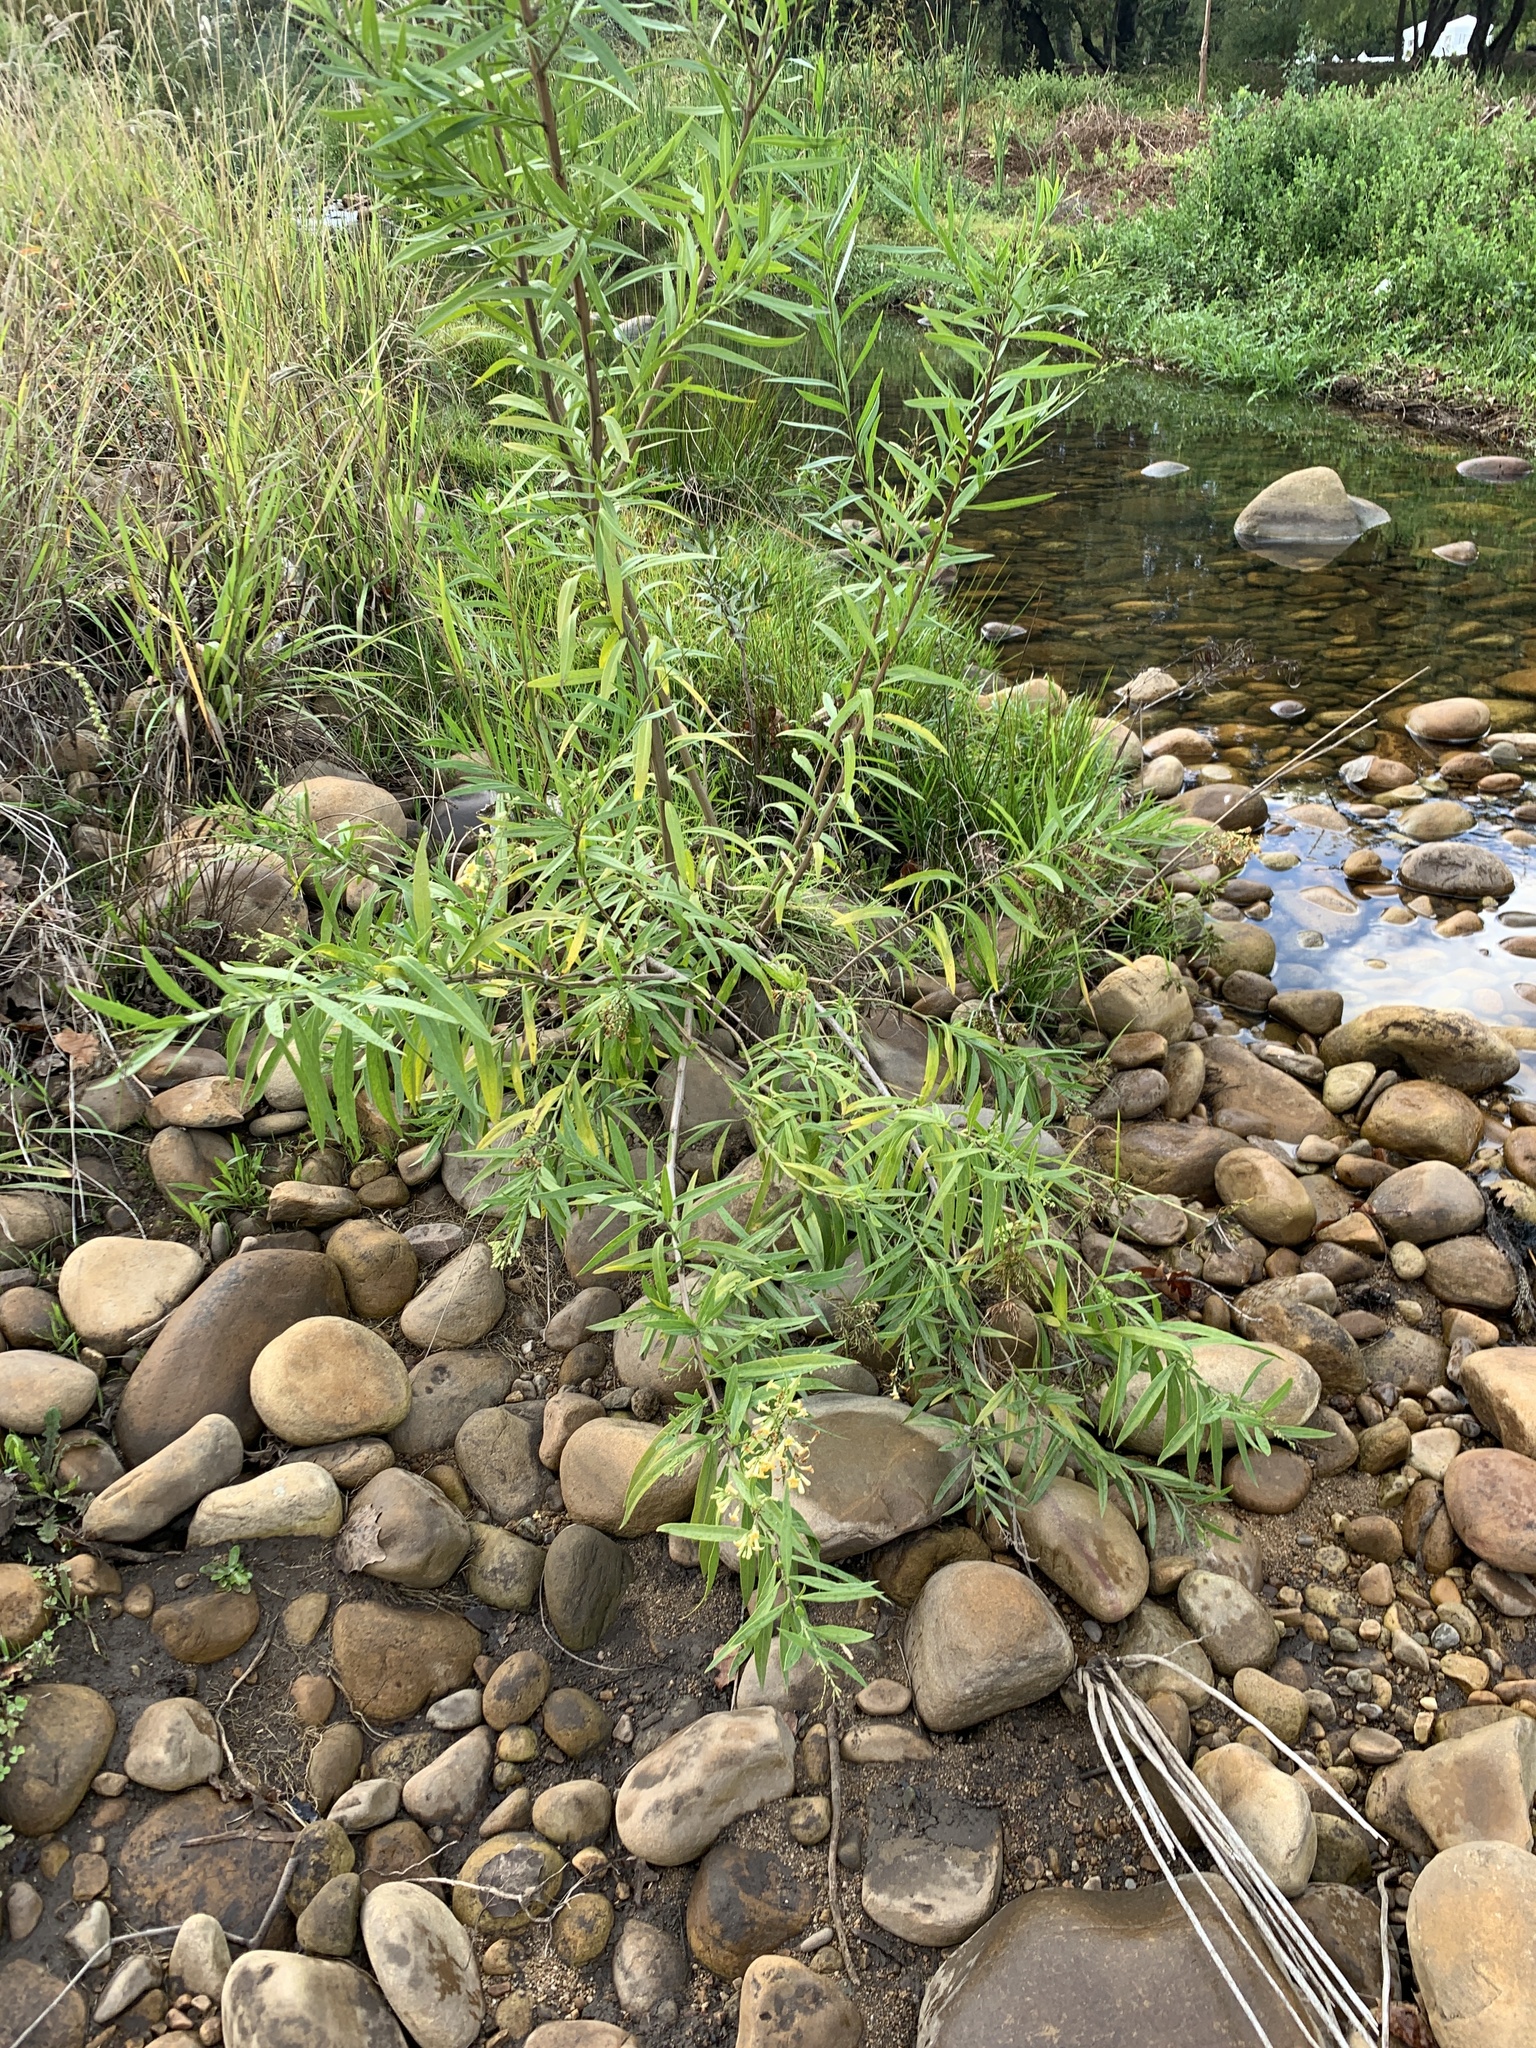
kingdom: Plantae
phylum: Tracheophyta
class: Magnoliopsida
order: Lamiales
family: Scrophulariaceae
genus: Freylinia
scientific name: Freylinia lanceolata
